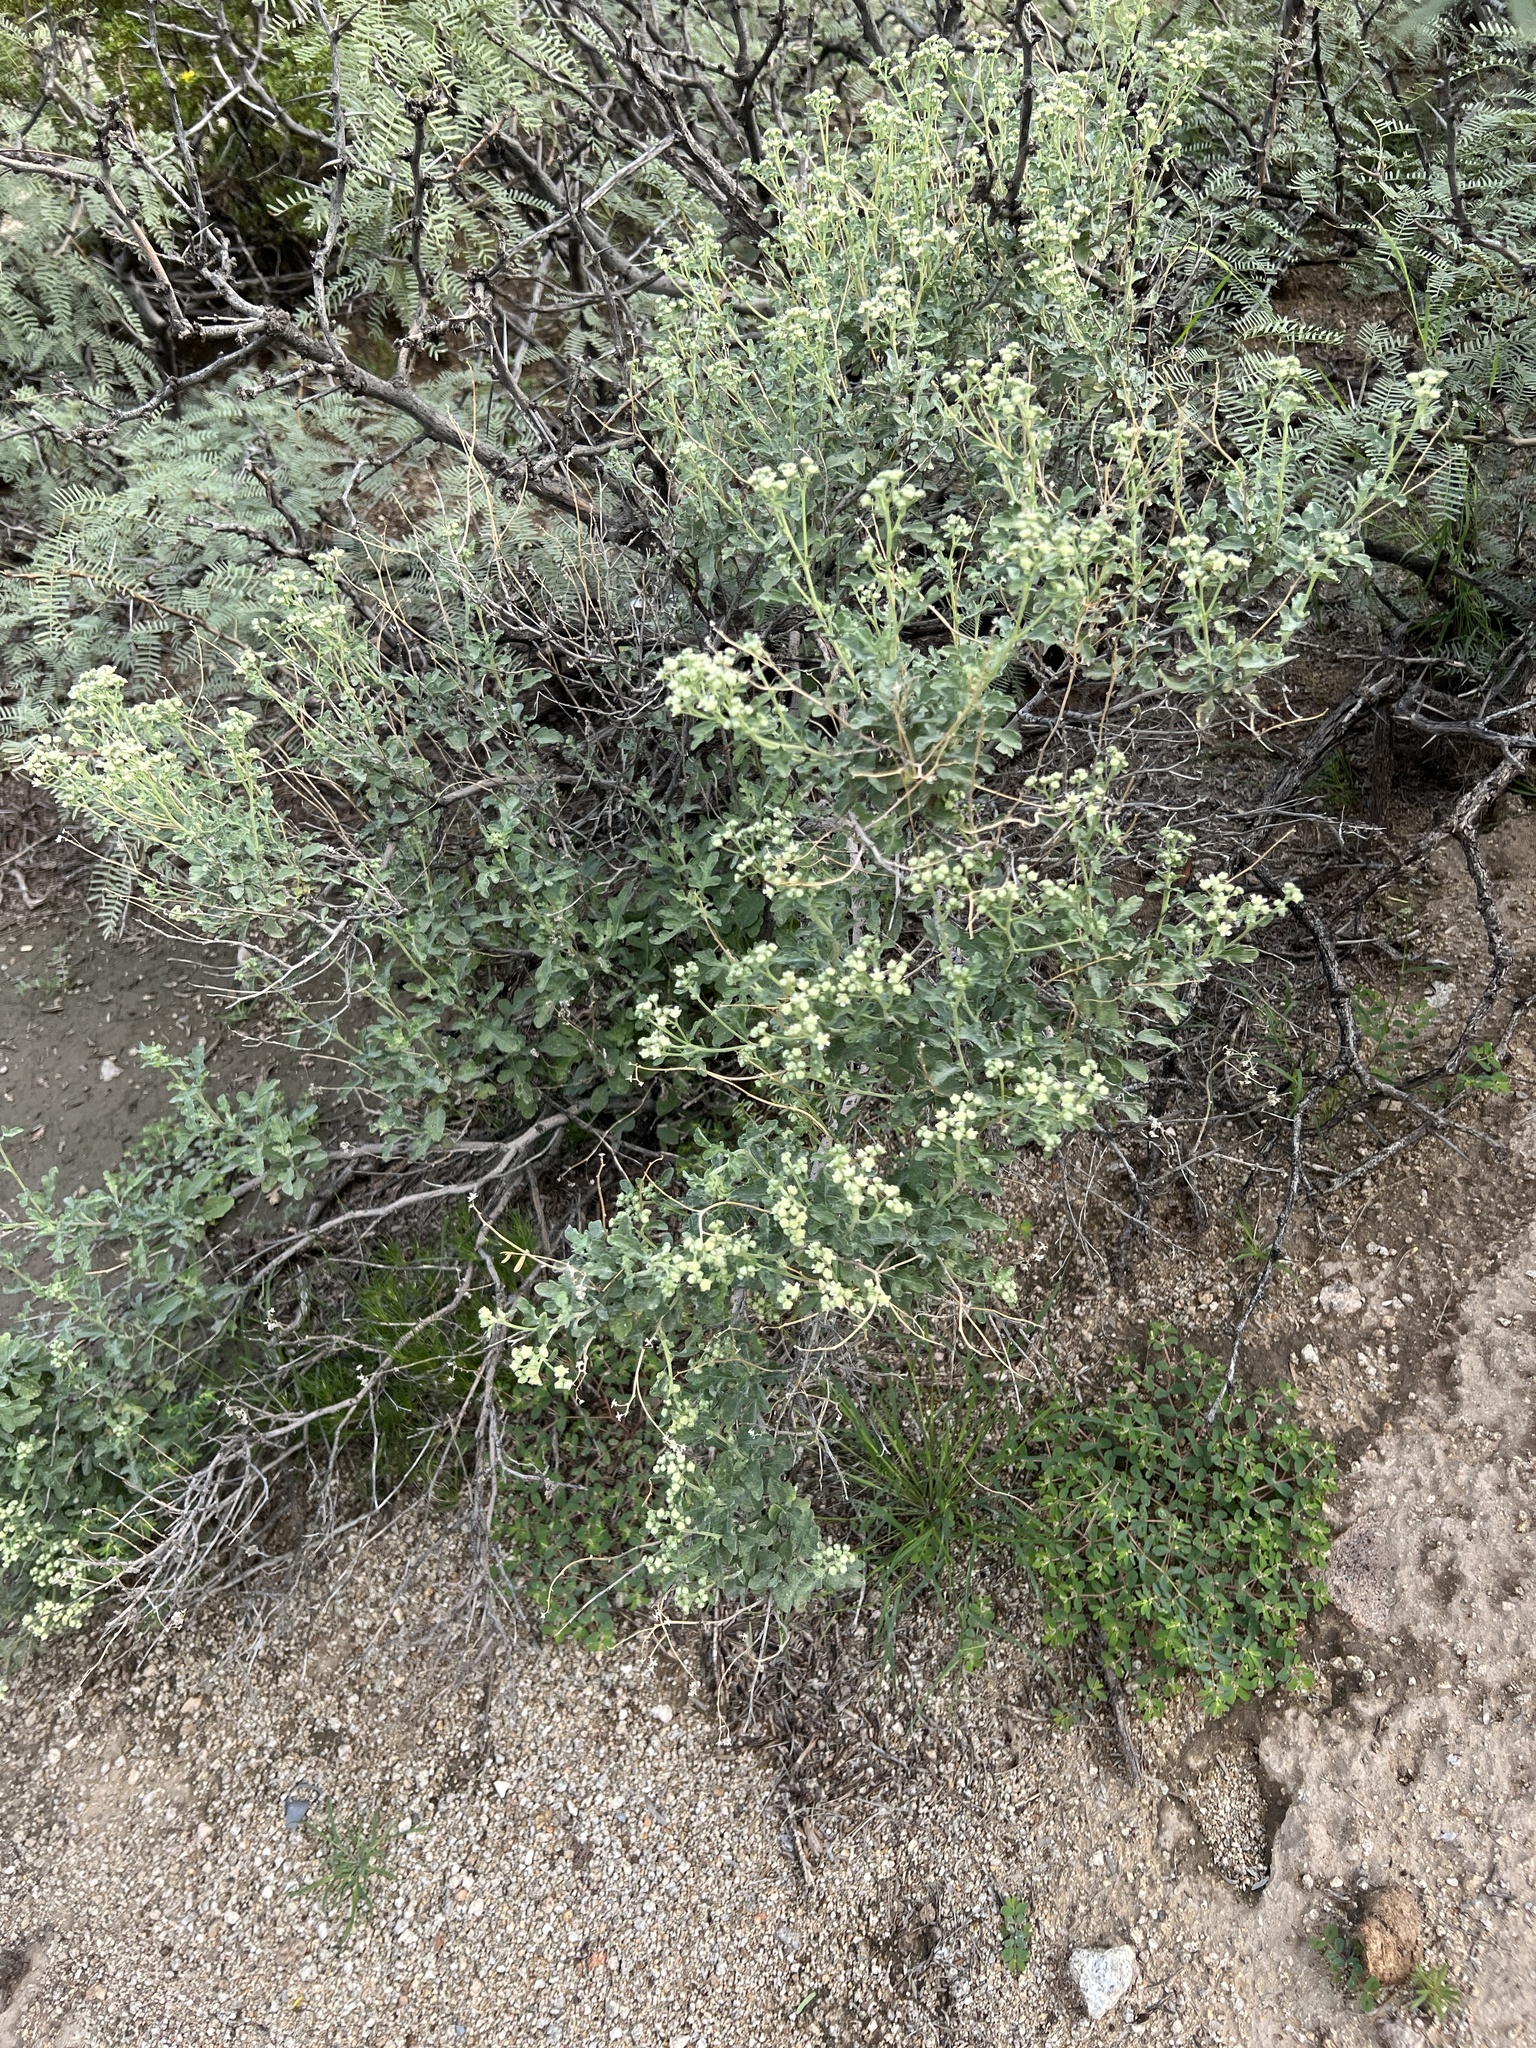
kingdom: Plantae
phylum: Tracheophyta
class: Magnoliopsida
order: Asterales
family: Asteraceae
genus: Parthenium
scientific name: Parthenium incanum
